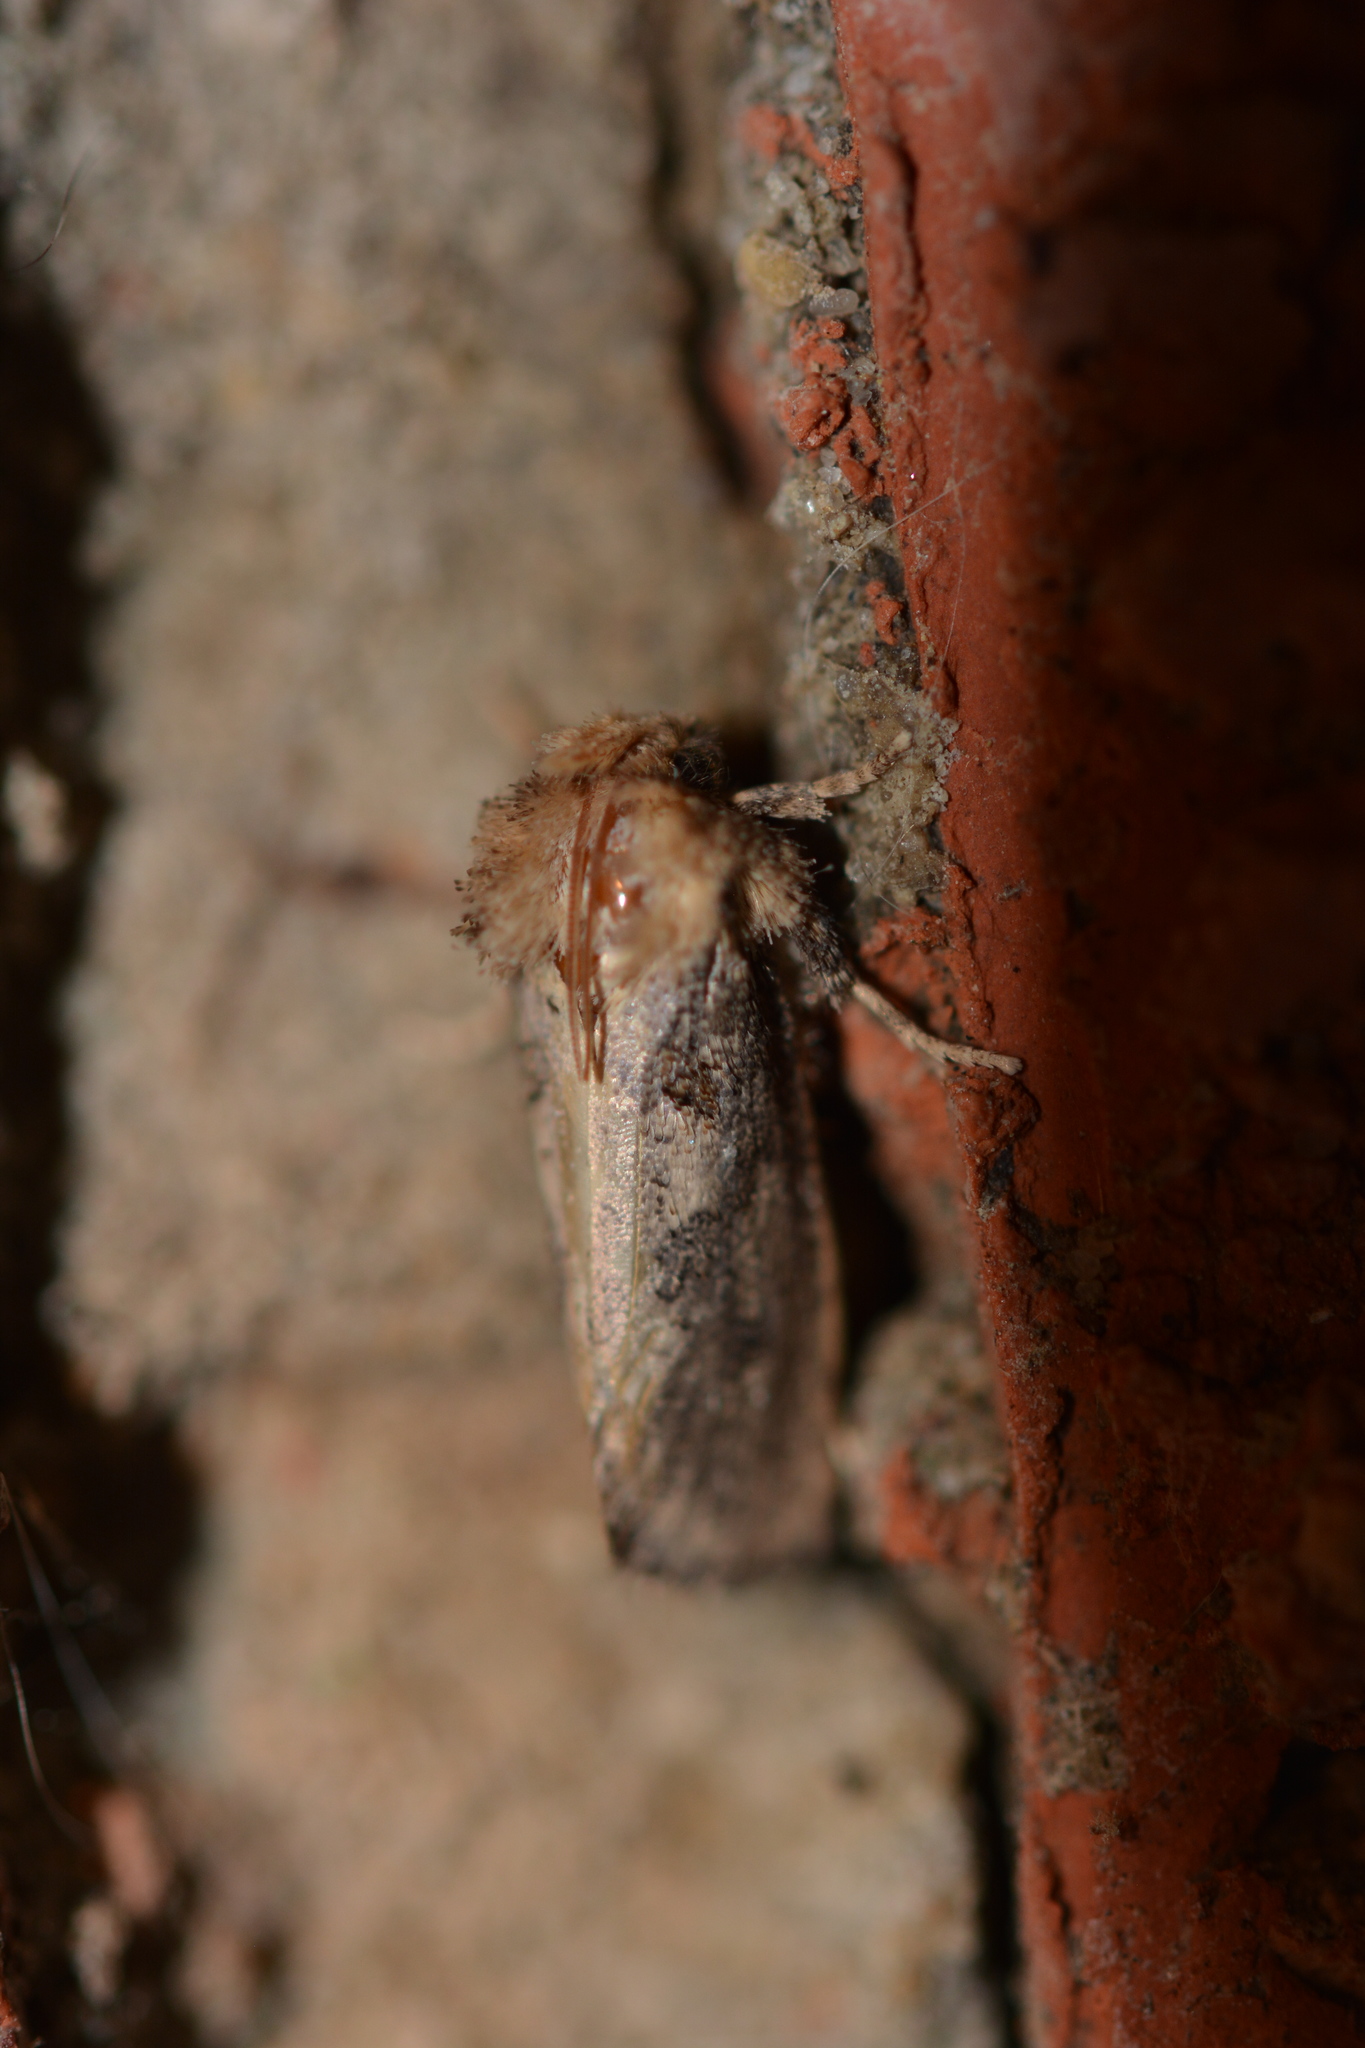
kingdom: Animalia
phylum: Arthropoda
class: Insecta
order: Lepidoptera
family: Tineidae
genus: Acrolophus
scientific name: Acrolophus arcanella
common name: Arcane grass tubeworm moth
